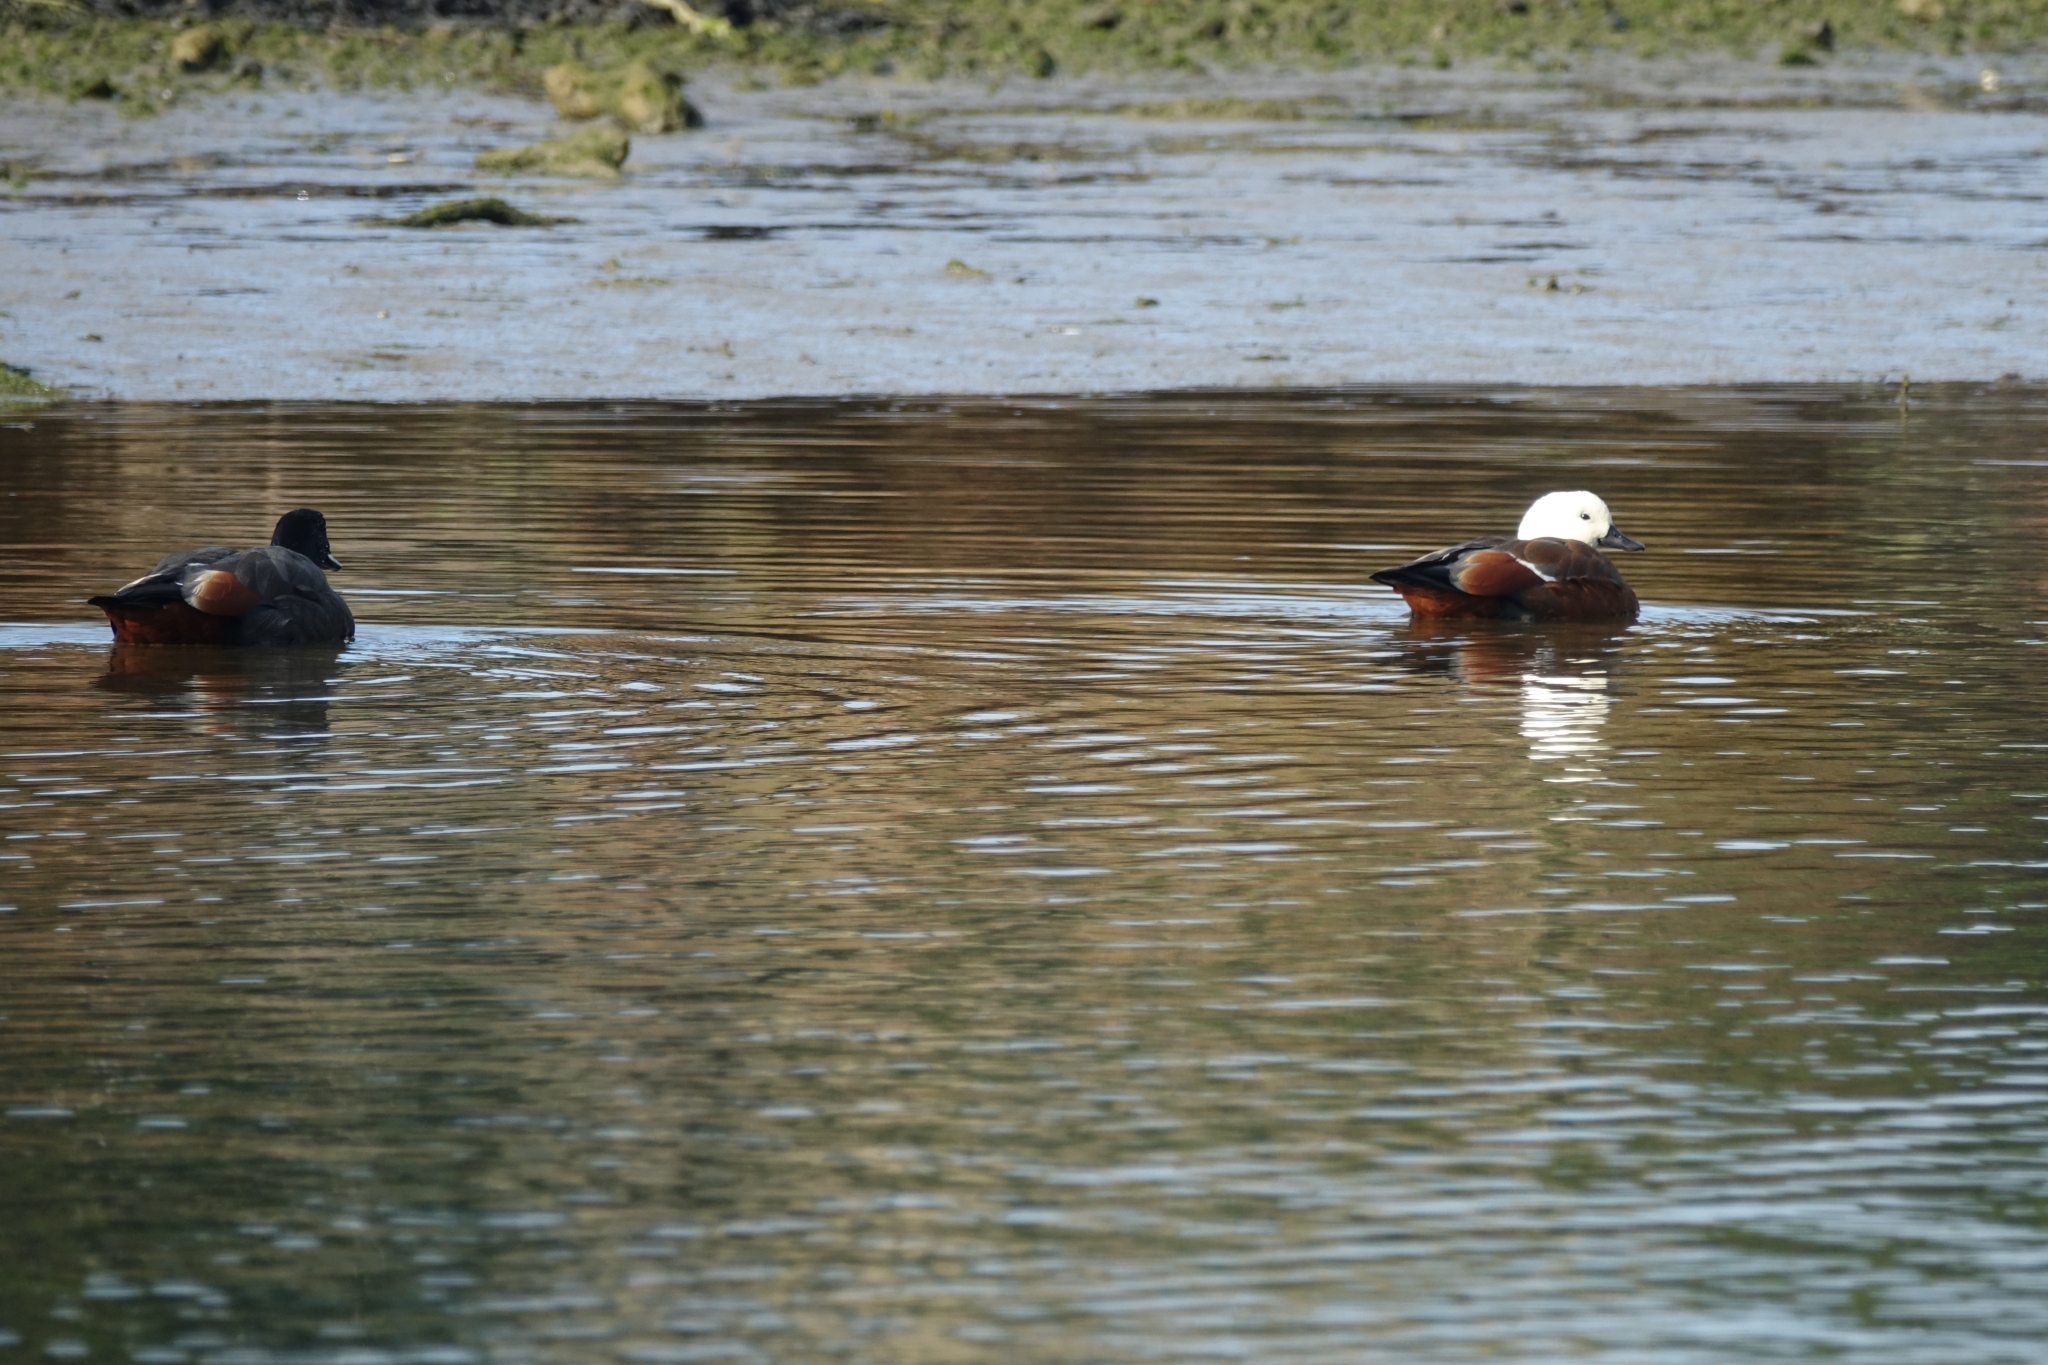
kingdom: Animalia
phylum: Chordata
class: Aves
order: Anseriformes
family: Anatidae
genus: Tadorna
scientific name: Tadorna variegata
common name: Paradise shelduck
